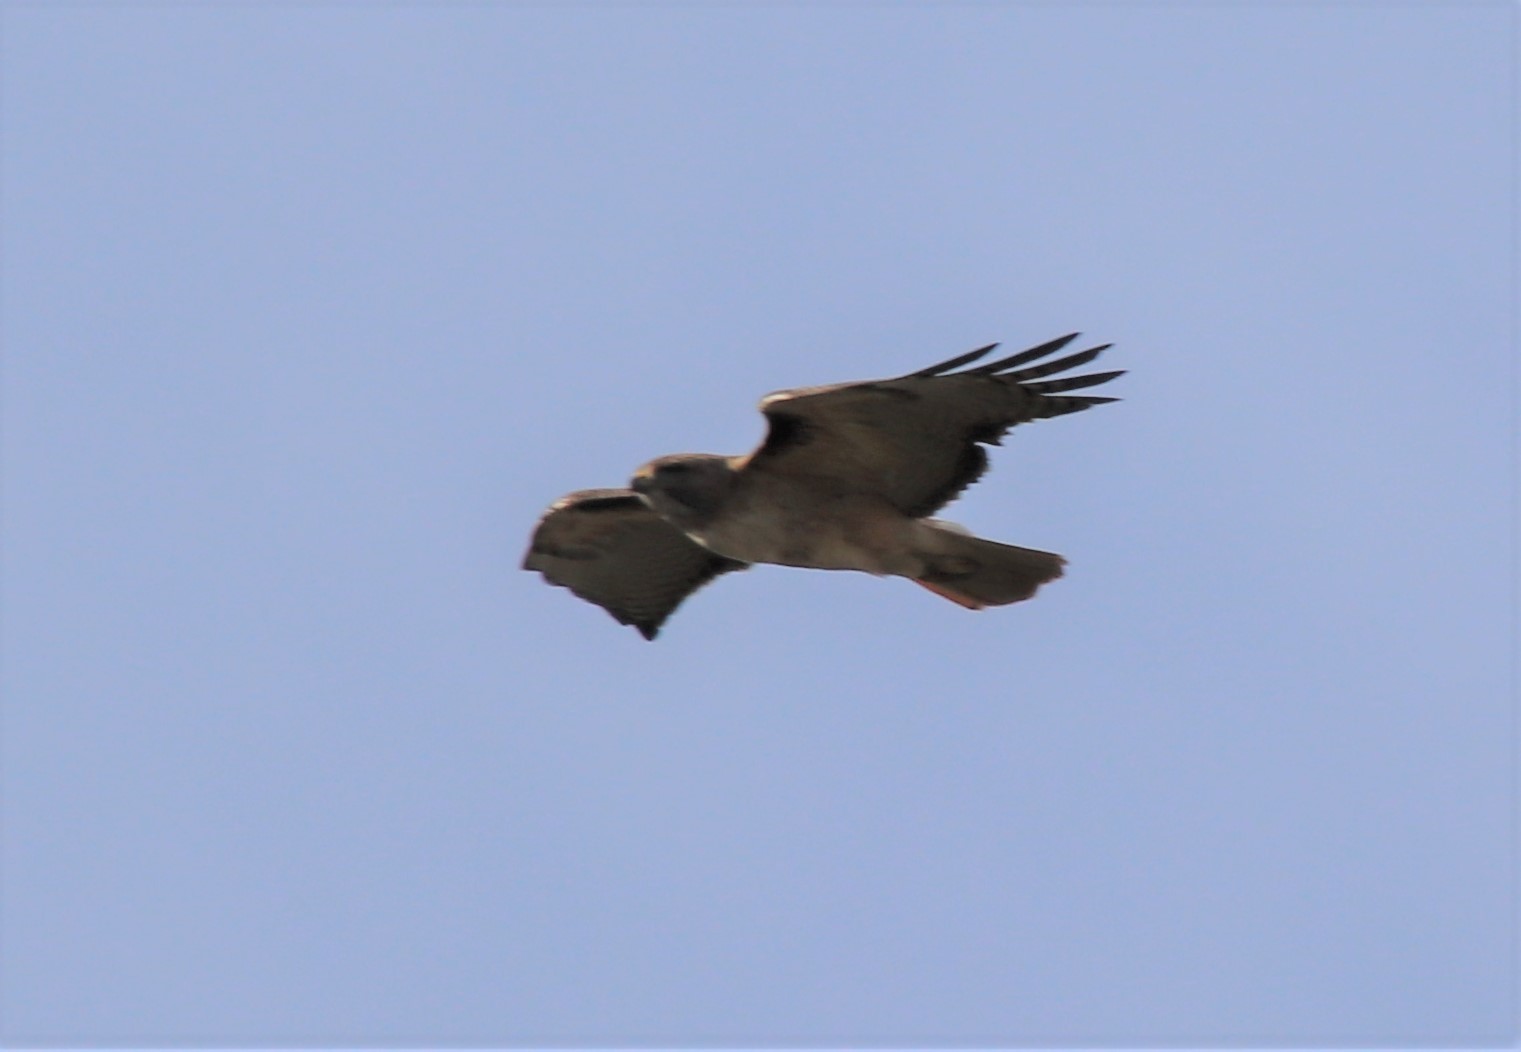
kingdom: Animalia
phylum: Chordata
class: Aves
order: Accipitriformes
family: Accipitridae
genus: Buteo
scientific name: Buteo jamaicensis
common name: Red-tailed hawk
